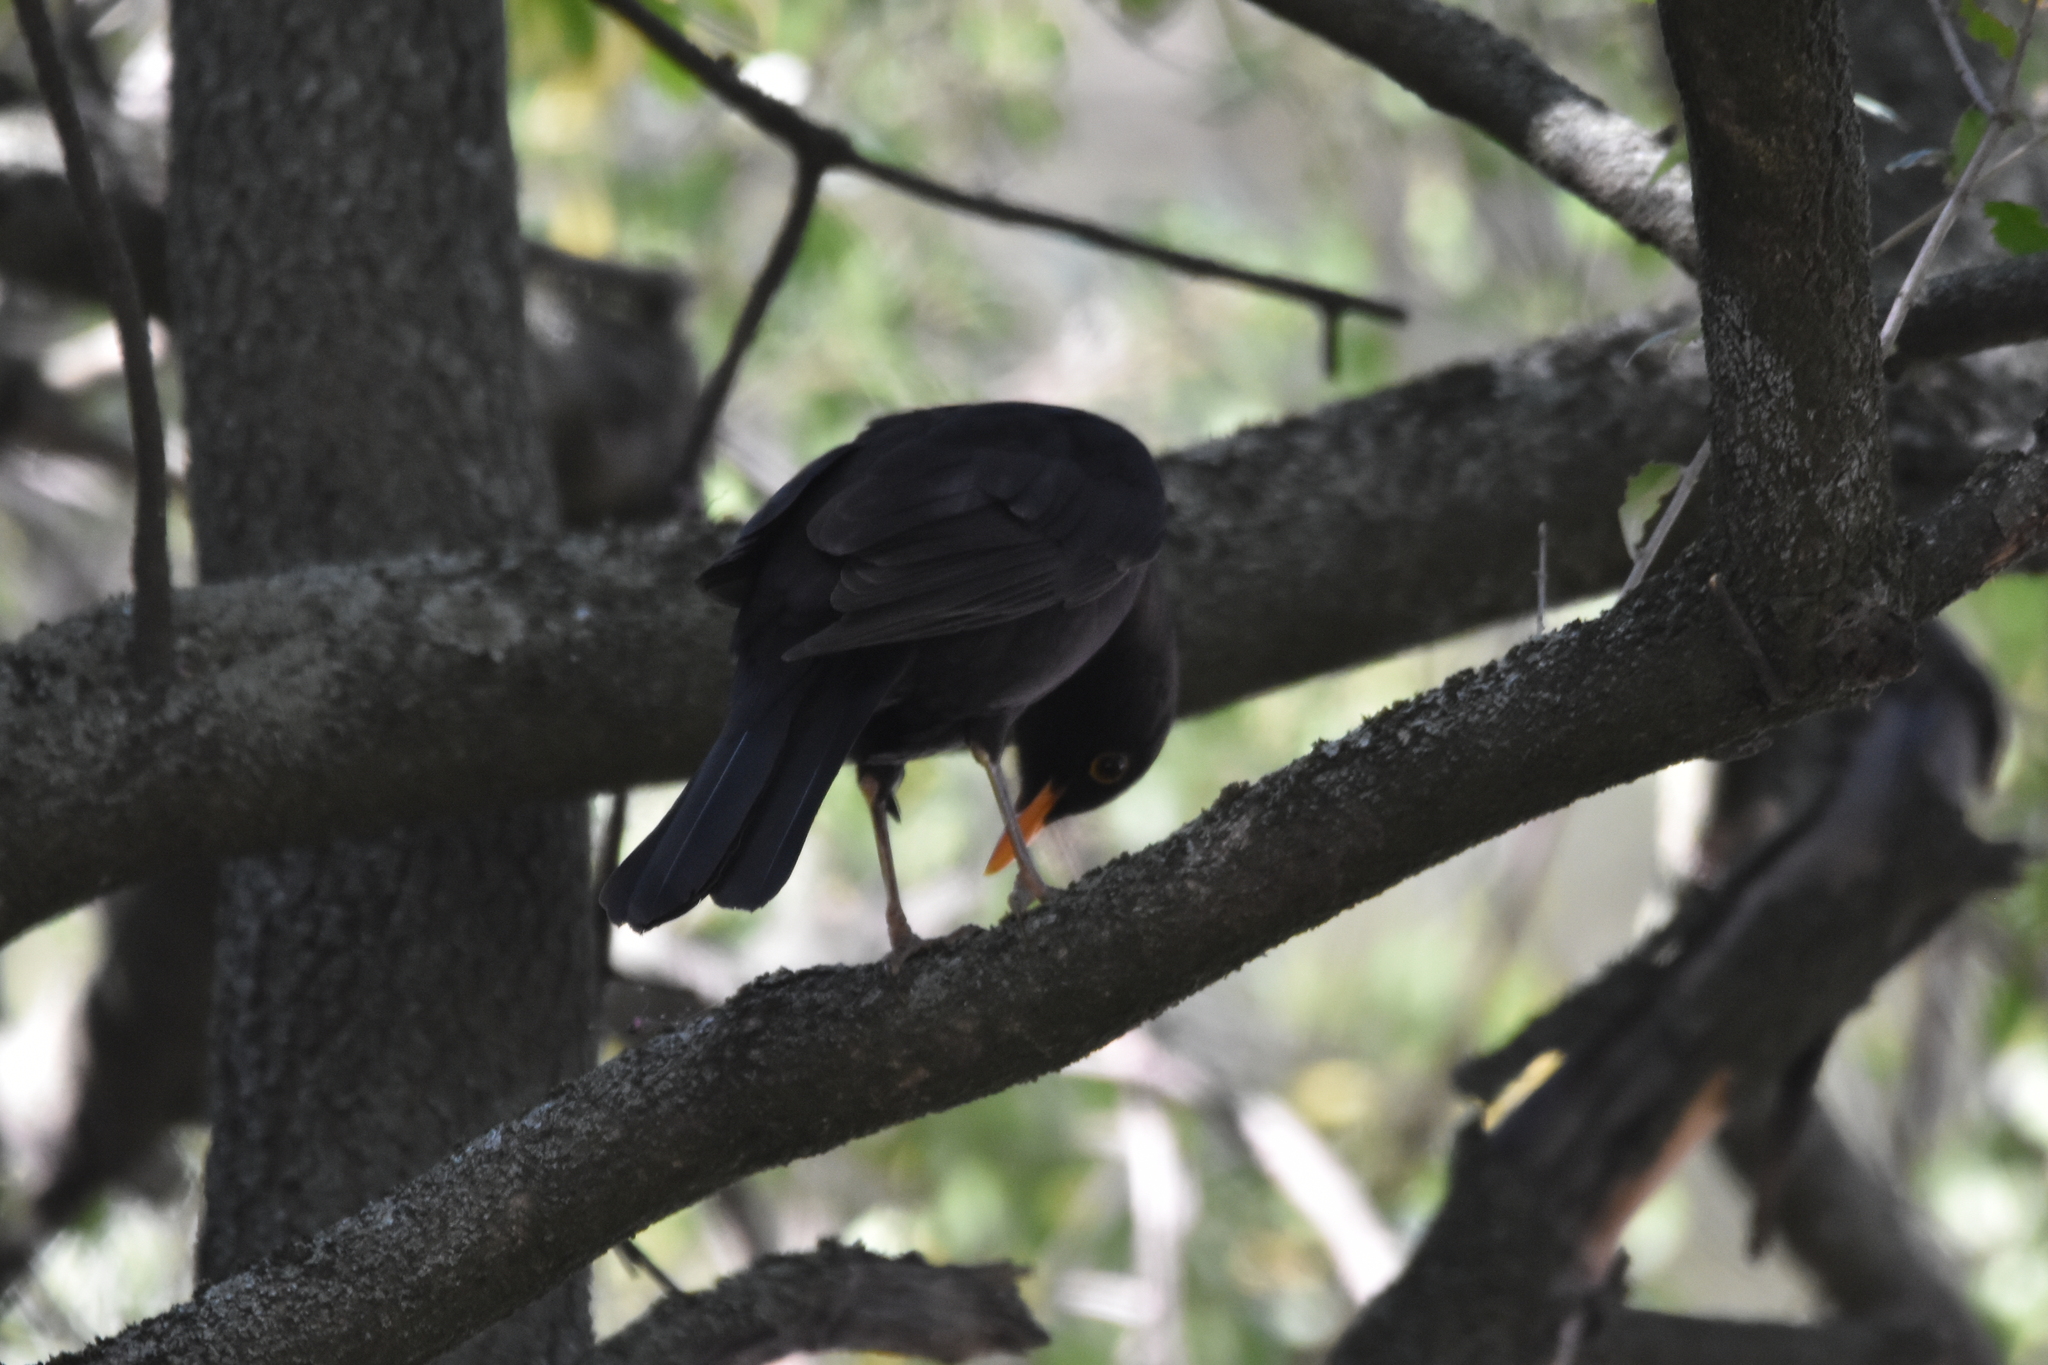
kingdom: Animalia
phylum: Chordata
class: Aves
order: Passeriformes
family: Turdidae
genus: Turdus
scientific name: Turdus merula
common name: Common blackbird
